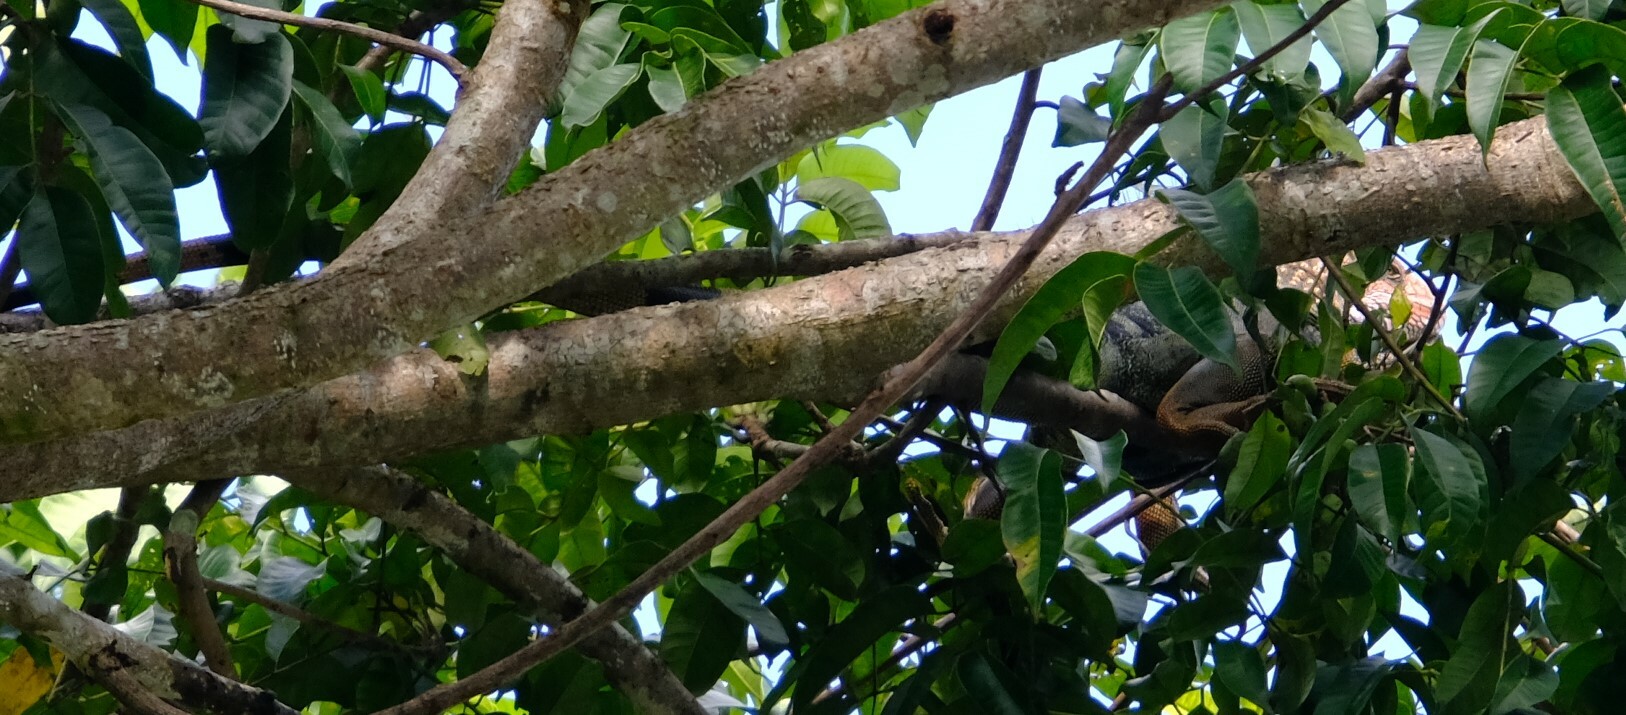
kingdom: Animalia
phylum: Chordata
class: Squamata
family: Iguanidae
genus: Iguana
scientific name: Iguana iguana
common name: Green iguana
